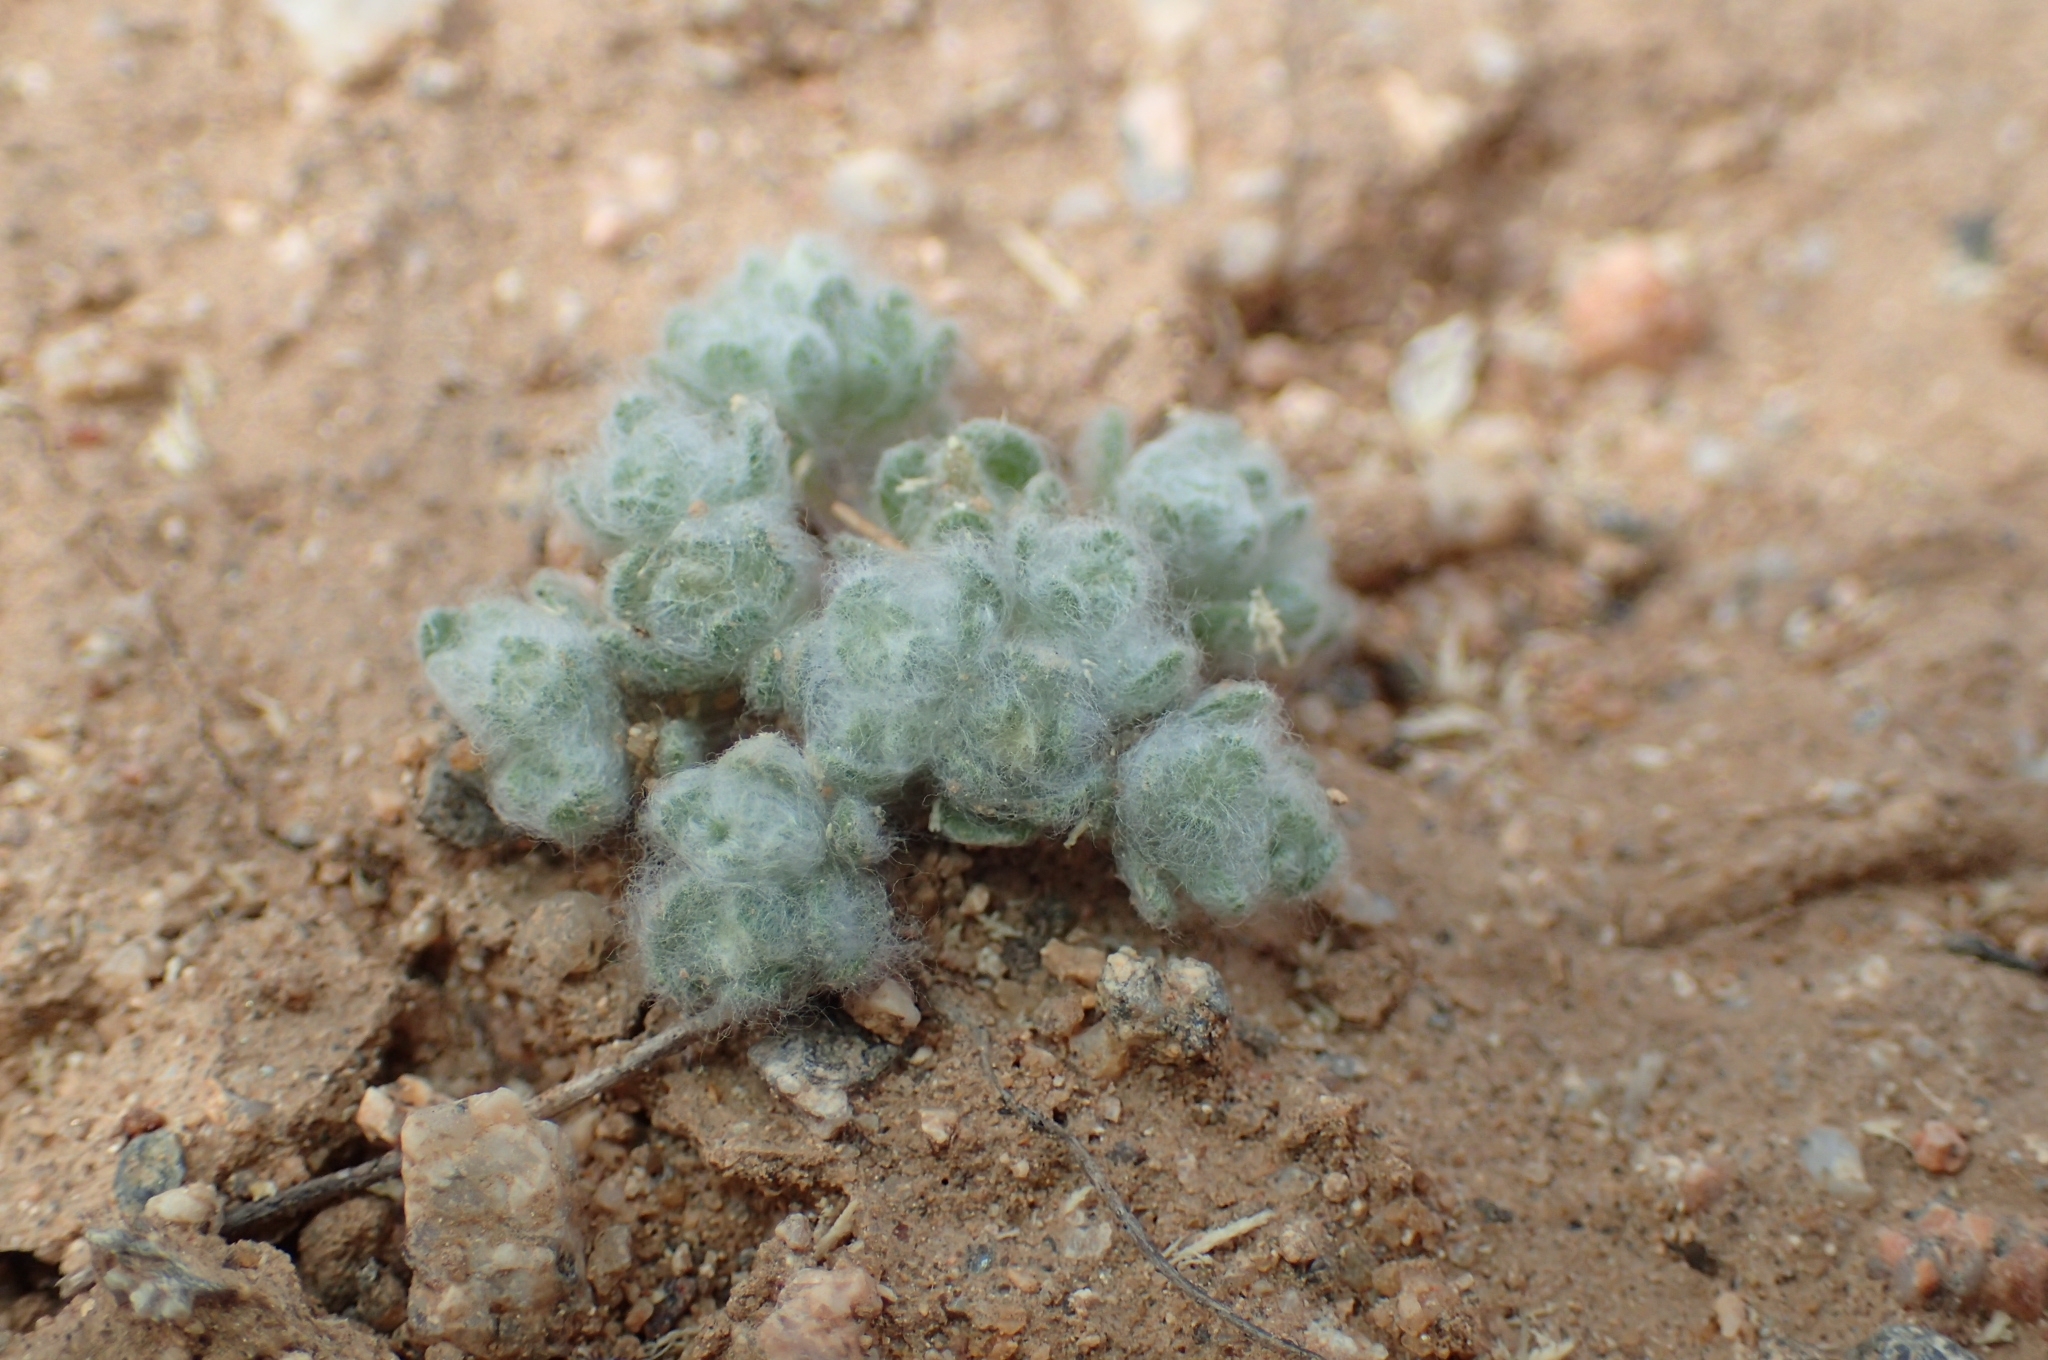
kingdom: Plantae
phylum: Tracheophyta
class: Magnoliopsida
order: Asterales
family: Asteraceae
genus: Lasiopogon
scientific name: Lasiopogon muscoides
